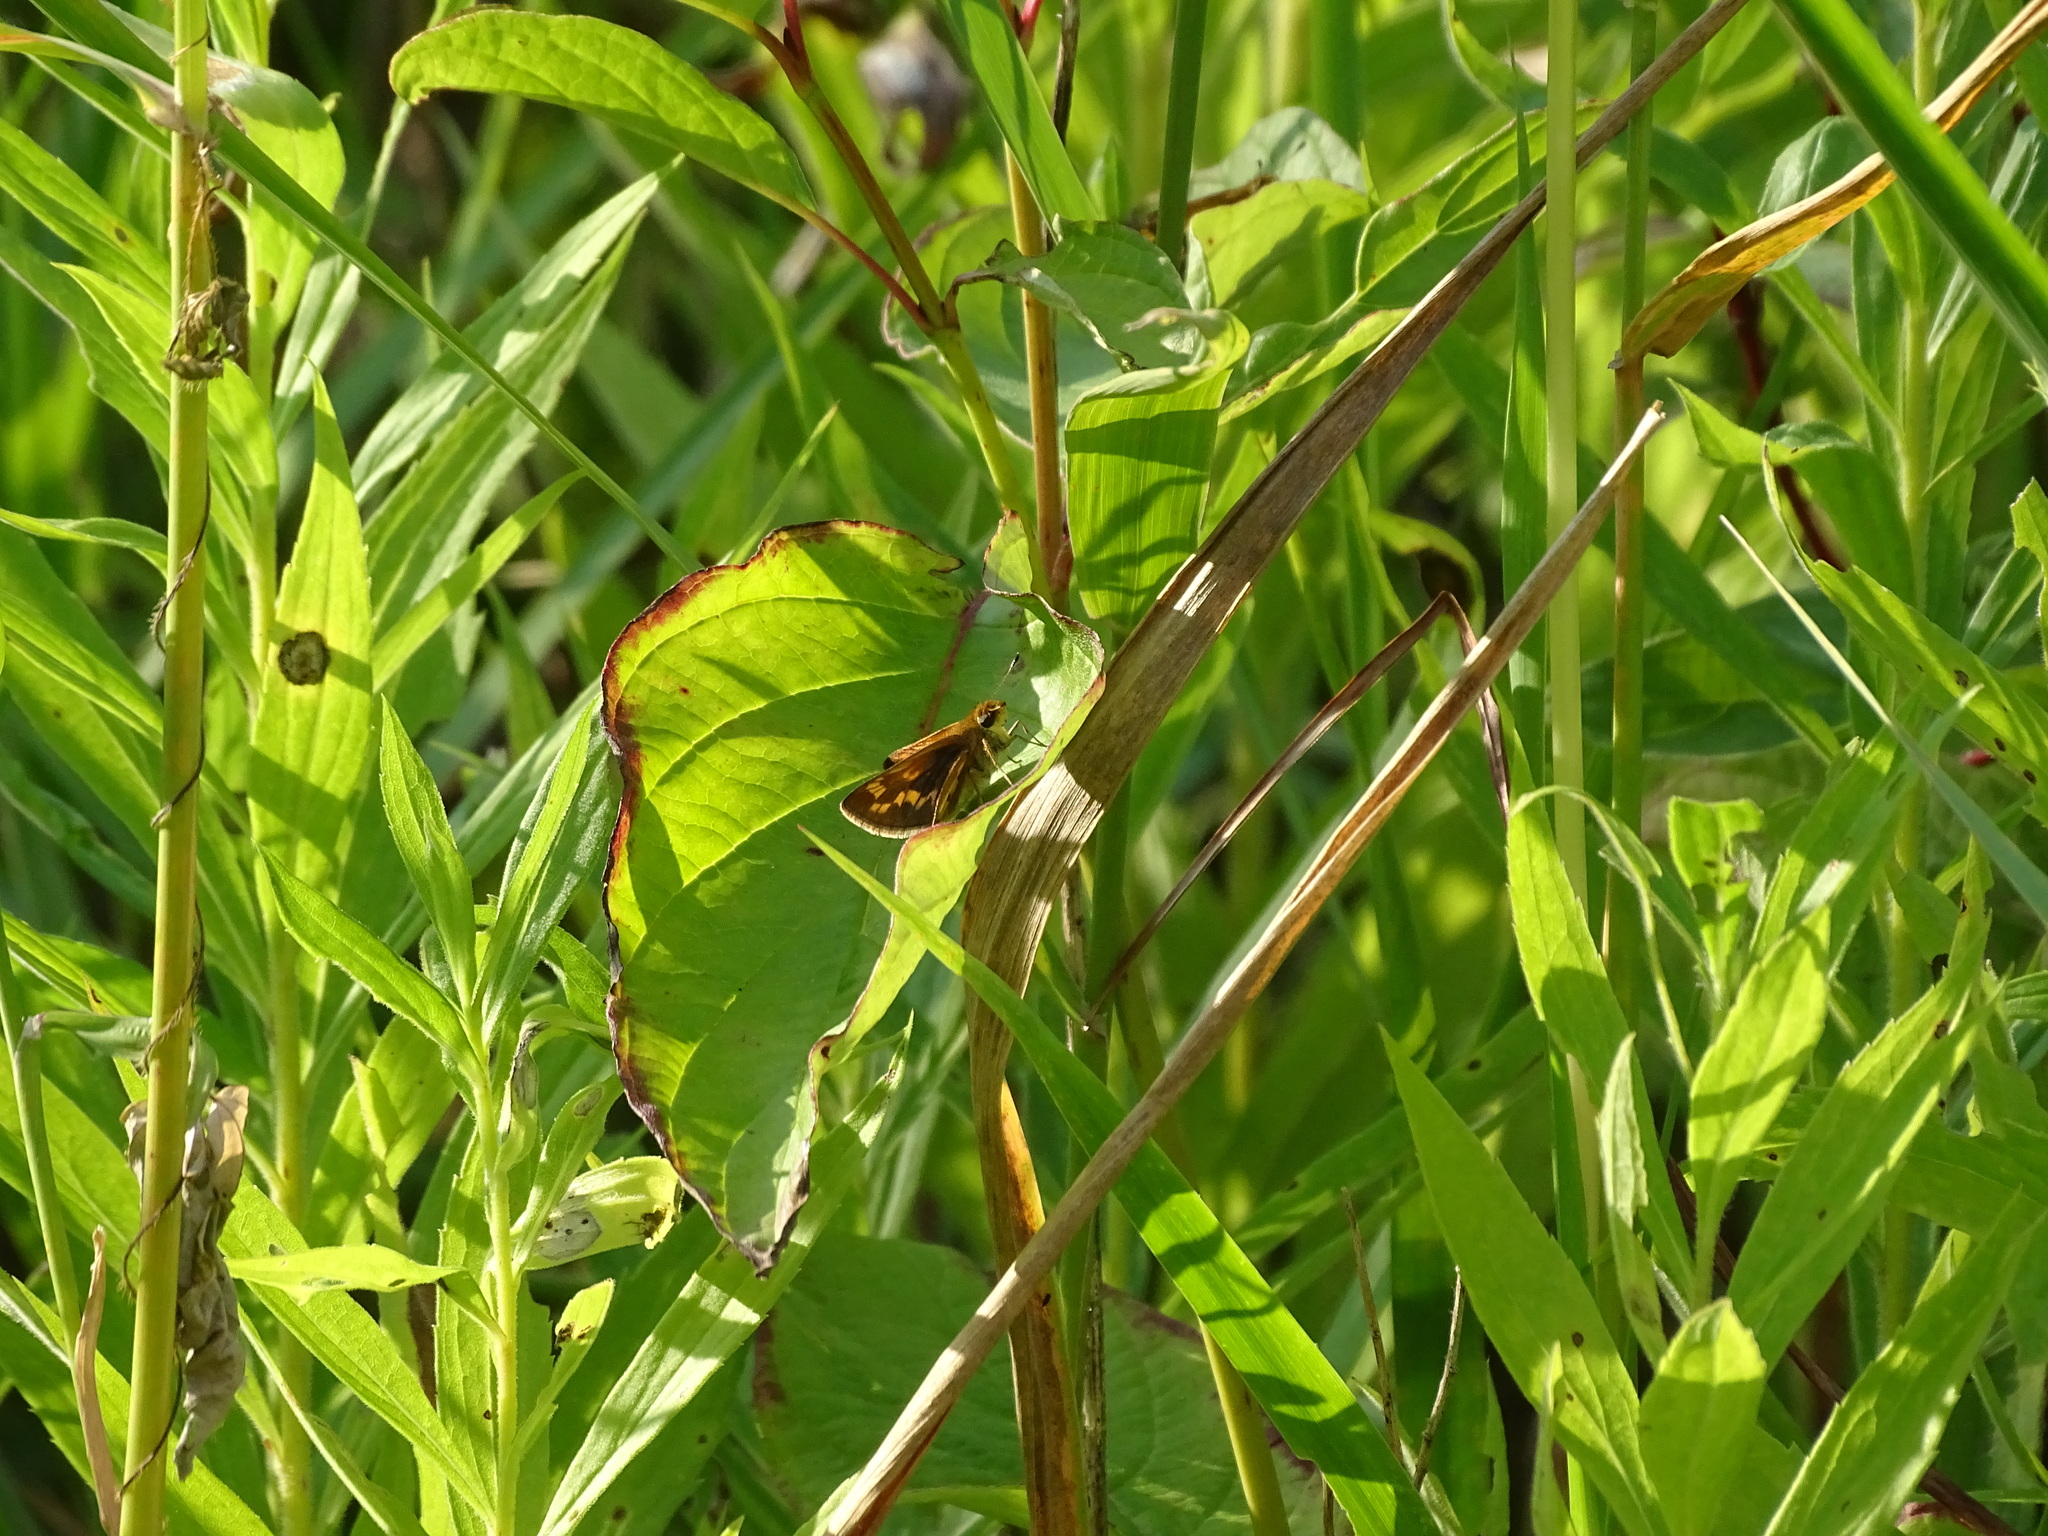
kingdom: Animalia
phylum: Arthropoda
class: Insecta
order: Lepidoptera
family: Hesperiidae
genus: Polites
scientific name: Polites coras
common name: Peck's skipper
